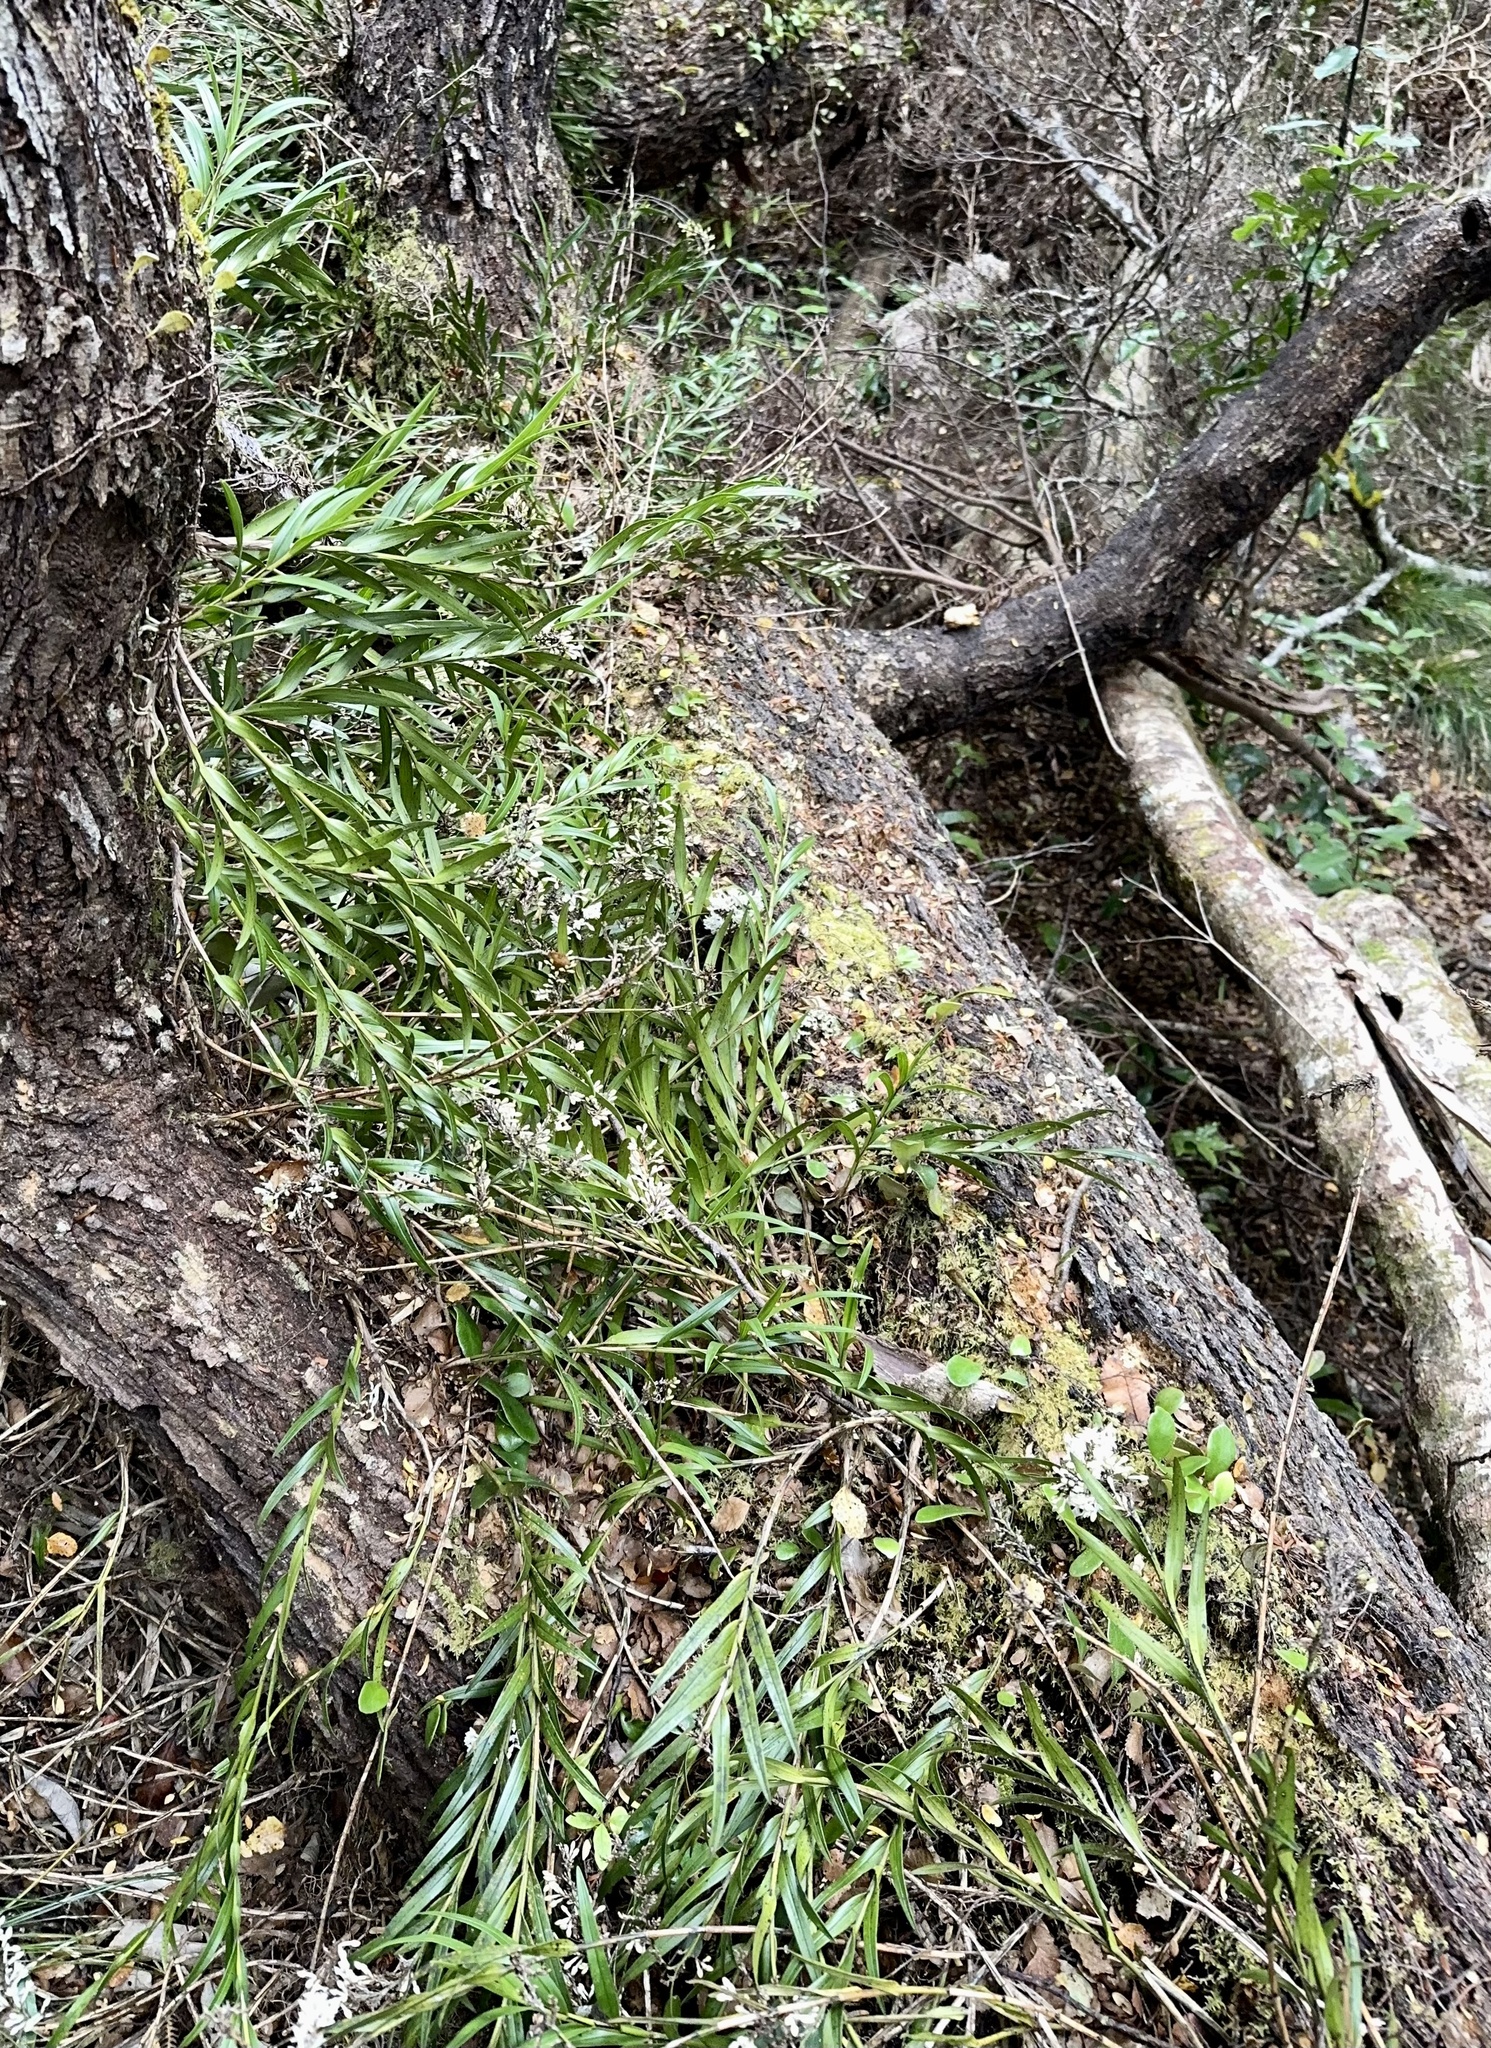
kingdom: Plantae
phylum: Tracheophyta
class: Liliopsida
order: Asparagales
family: Orchidaceae
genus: Earina
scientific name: Earina autumnalis
